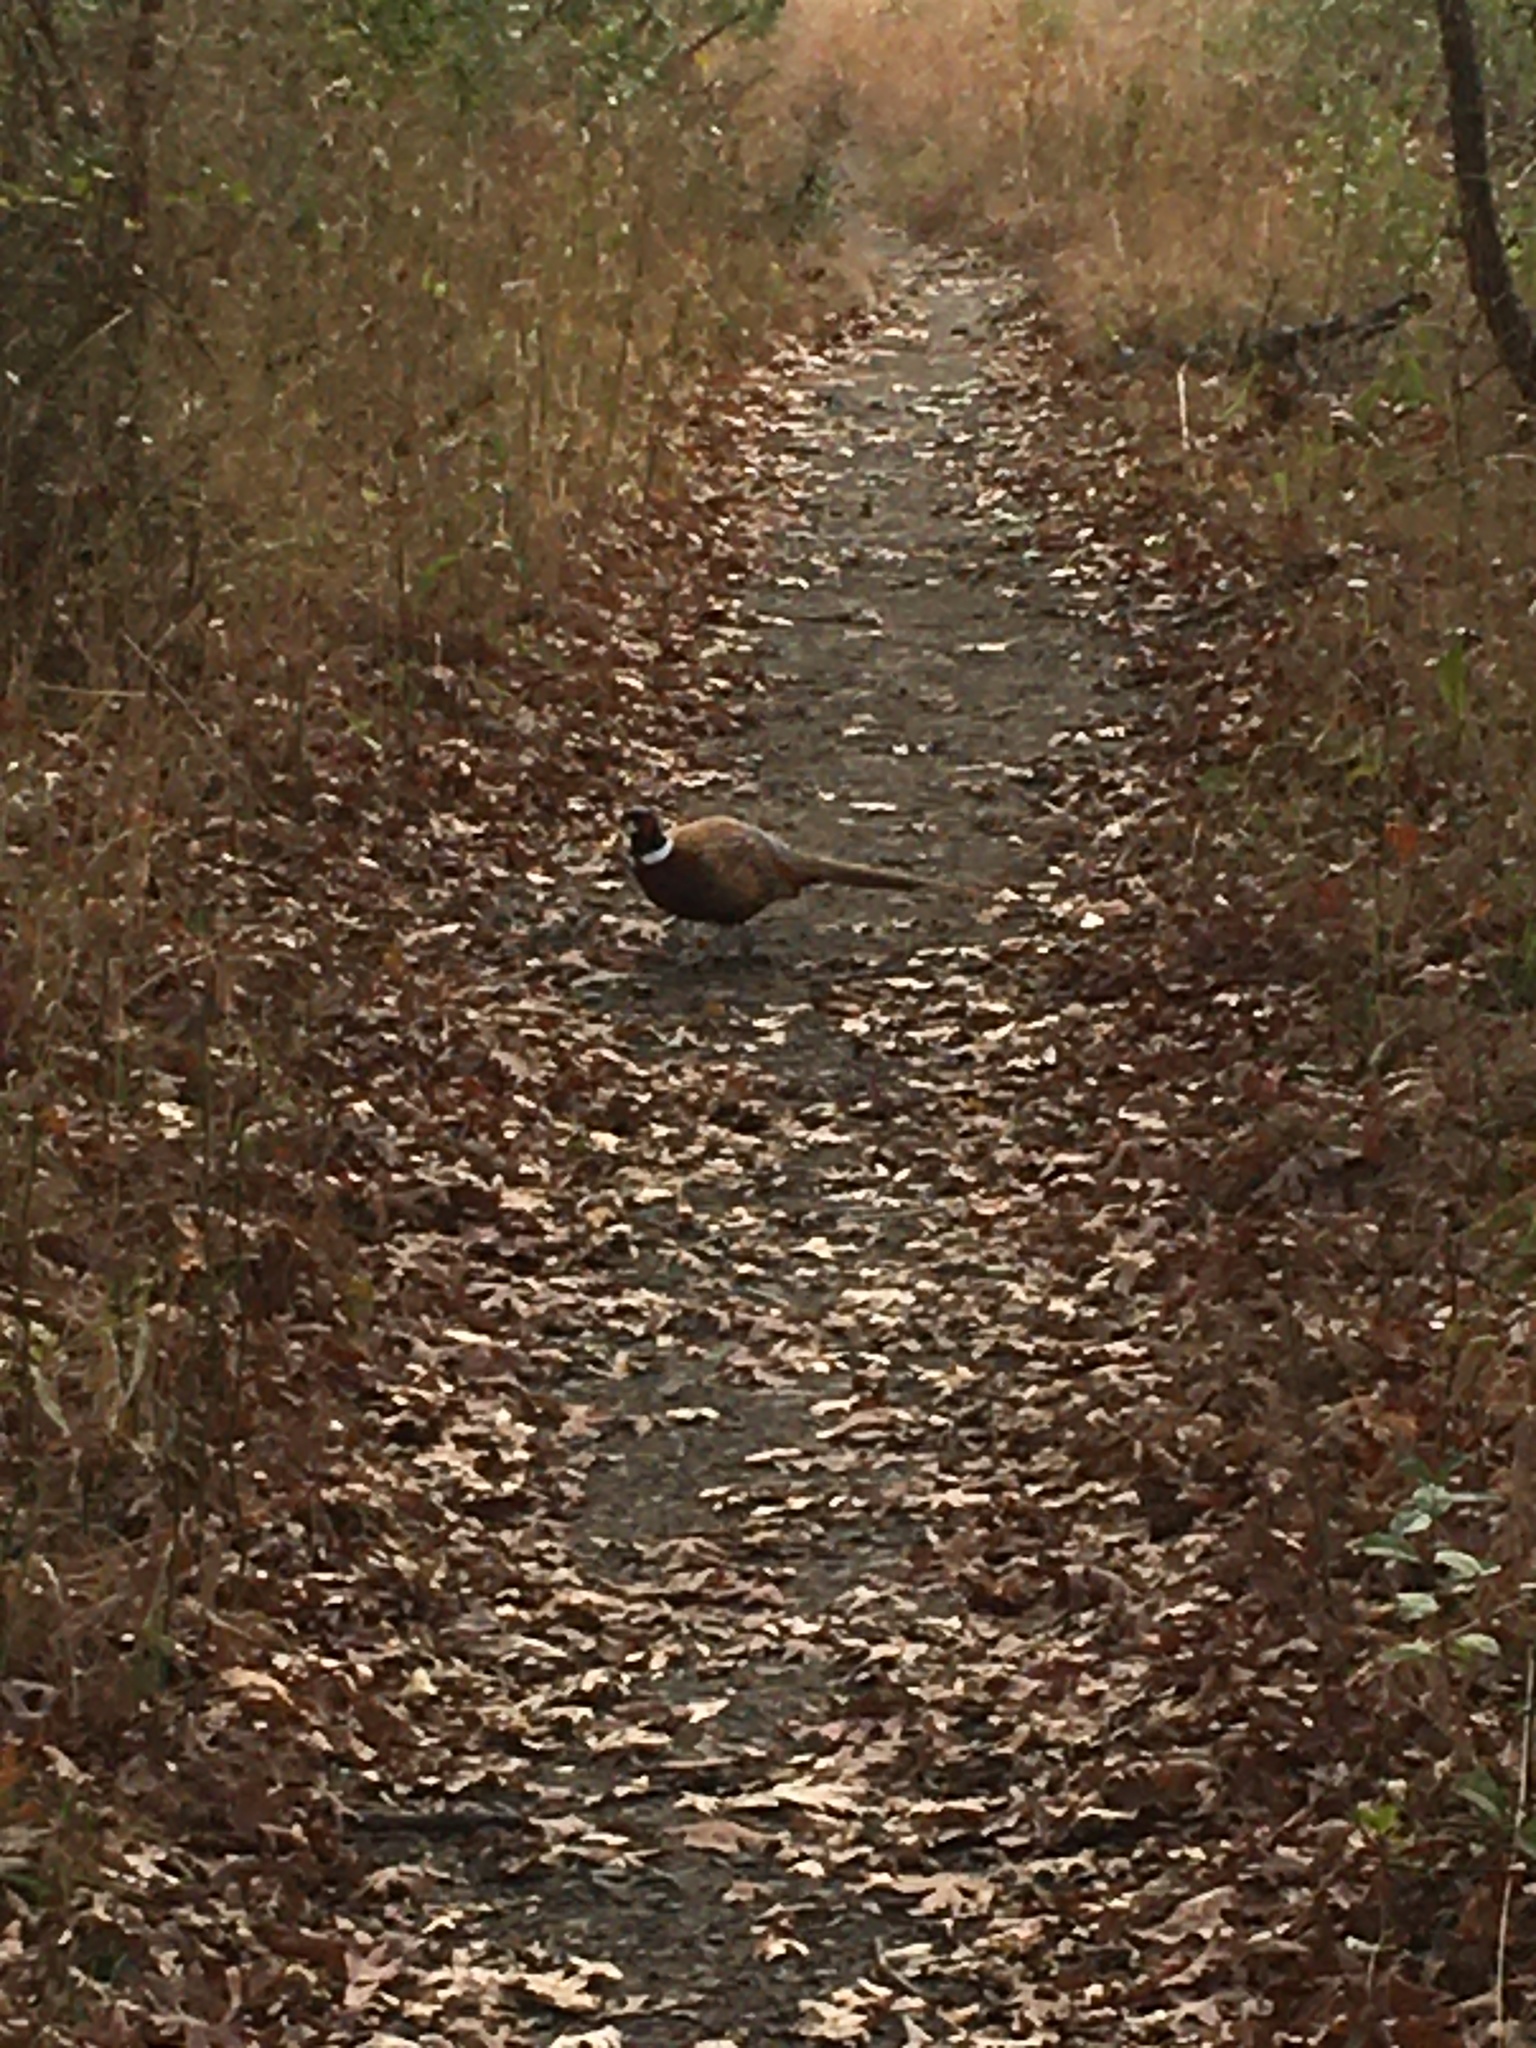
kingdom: Animalia
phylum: Chordata
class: Aves
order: Galliformes
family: Phasianidae
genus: Phasianus
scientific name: Phasianus colchicus
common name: Common pheasant
